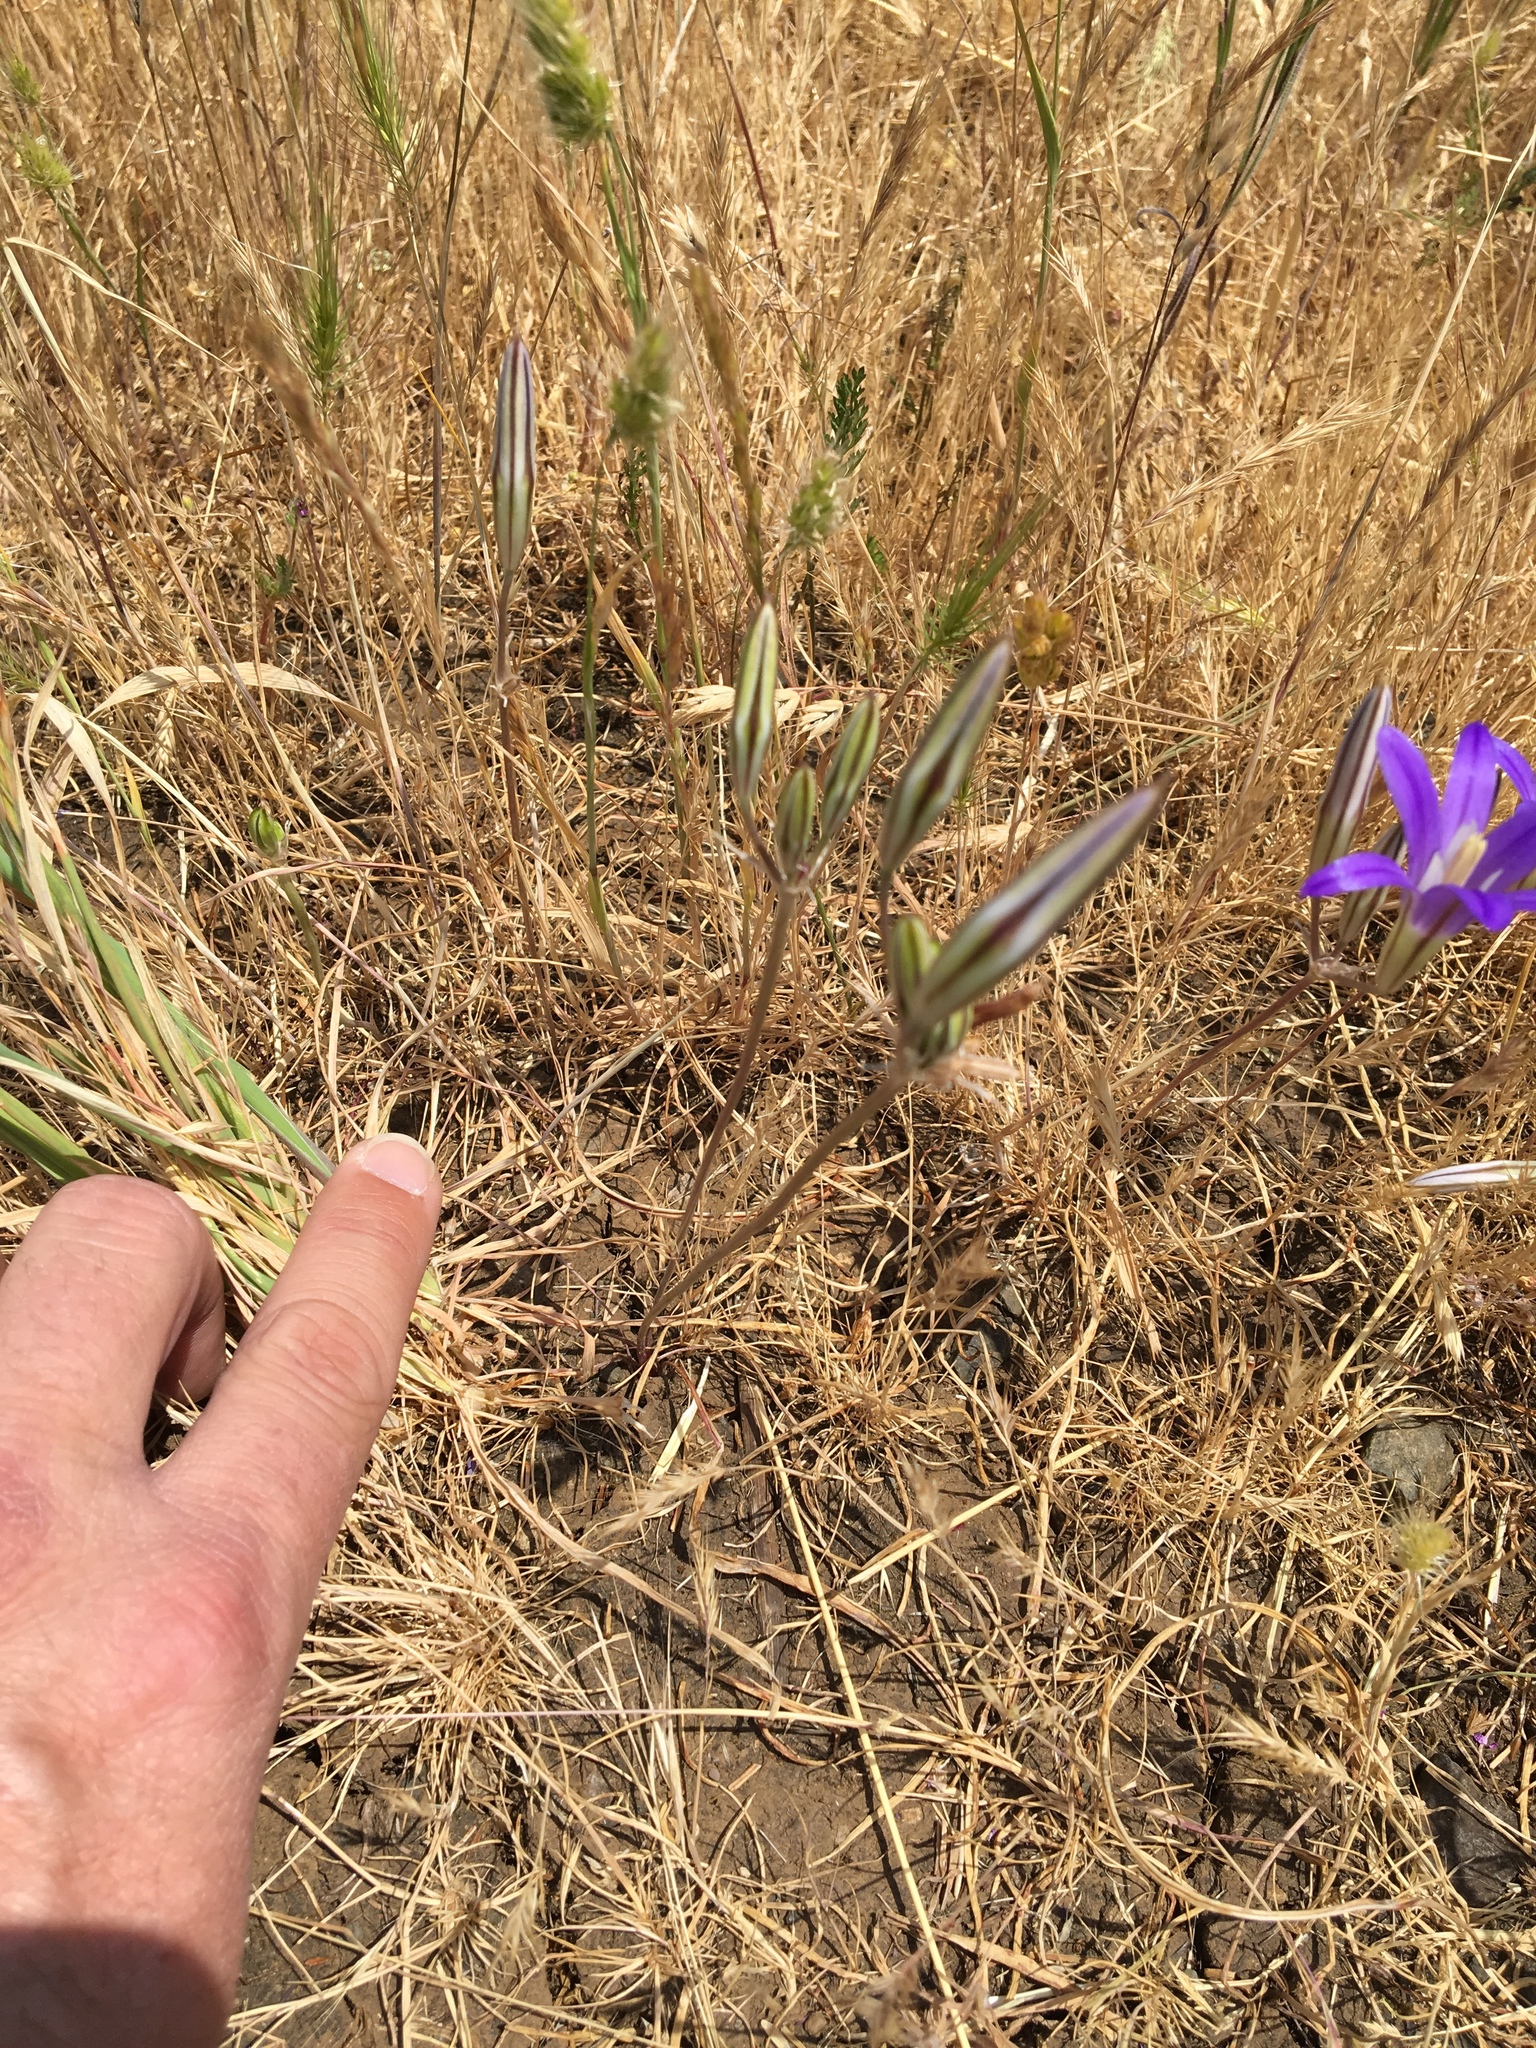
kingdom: Plantae
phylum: Tracheophyta
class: Liliopsida
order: Asparagales
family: Asparagaceae
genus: Brodiaea
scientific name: Brodiaea elegans
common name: Elegant cluster-lily
